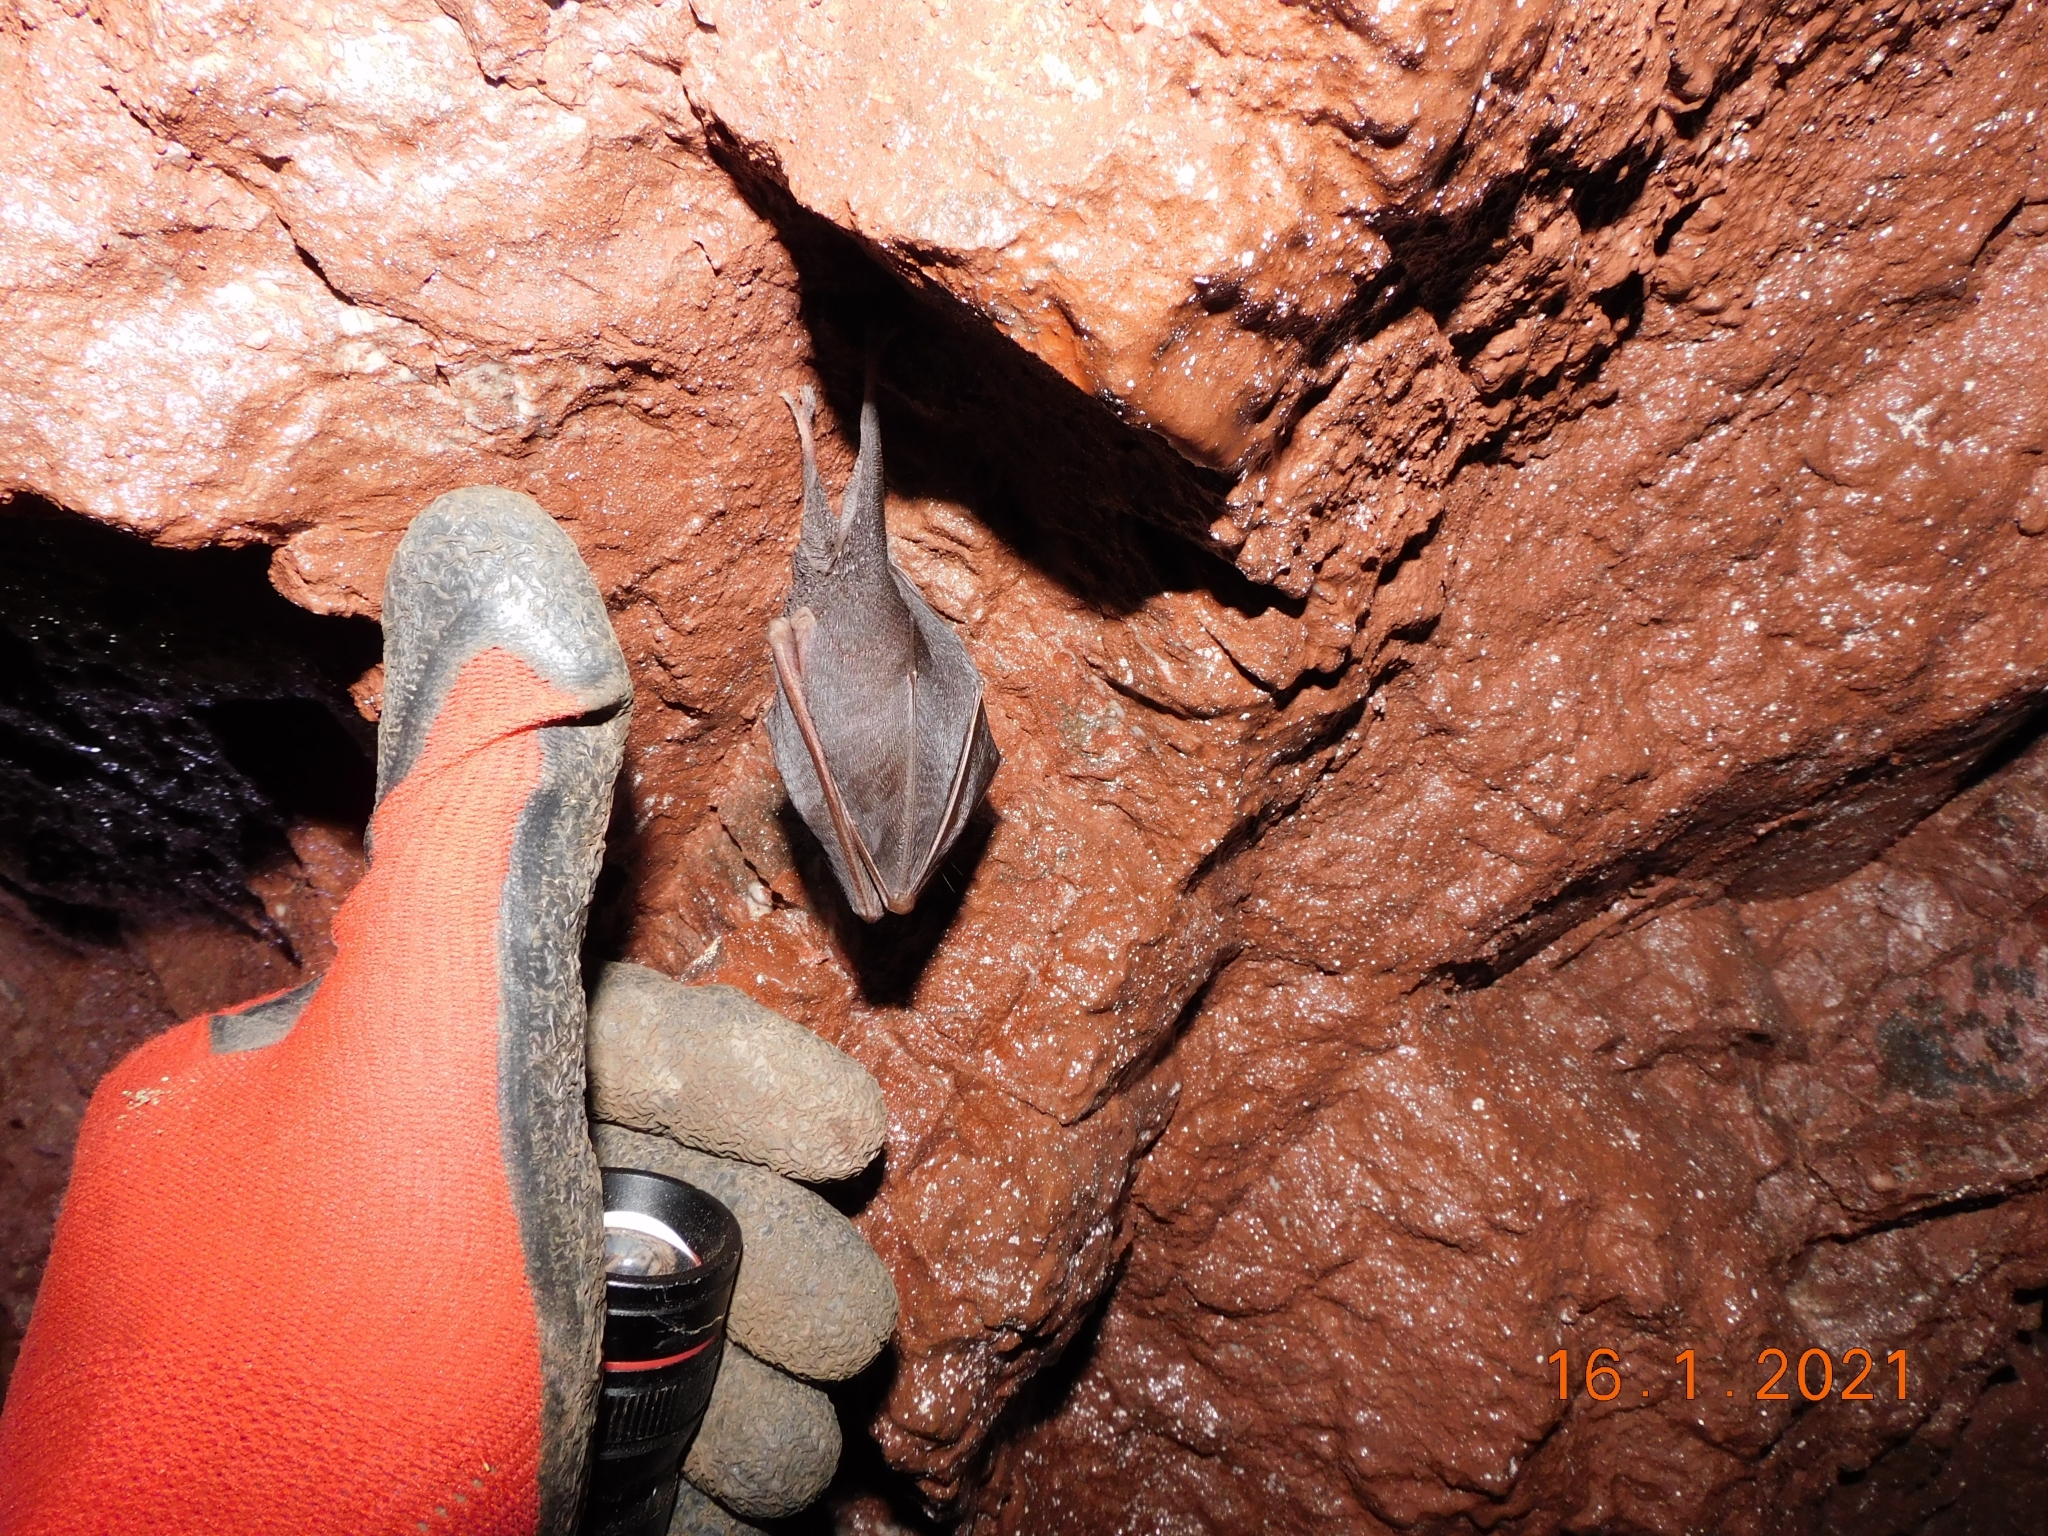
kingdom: Animalia
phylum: Chordata
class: Mammalia
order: Chiroptera
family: Rhinolophidae
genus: Rhinolophus
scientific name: Rhinolophus hipposideros
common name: Lesser horseshoe bat
